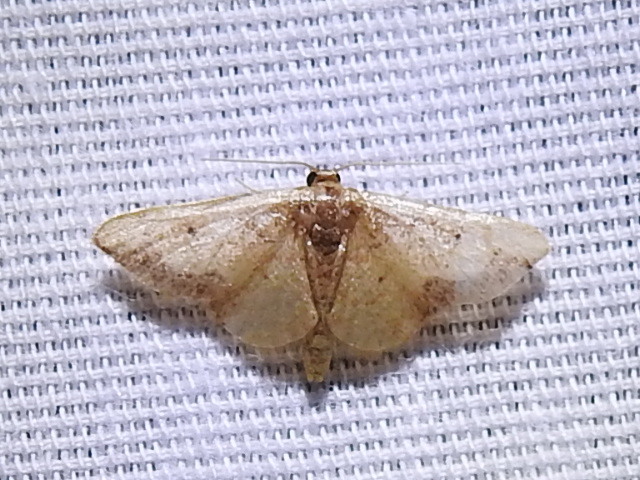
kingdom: Animalia
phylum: Arthropoda
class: Insecta
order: Lepidoptera
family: Geometridae
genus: Idaea
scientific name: Idaea demissaria
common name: Red-bordered wave
